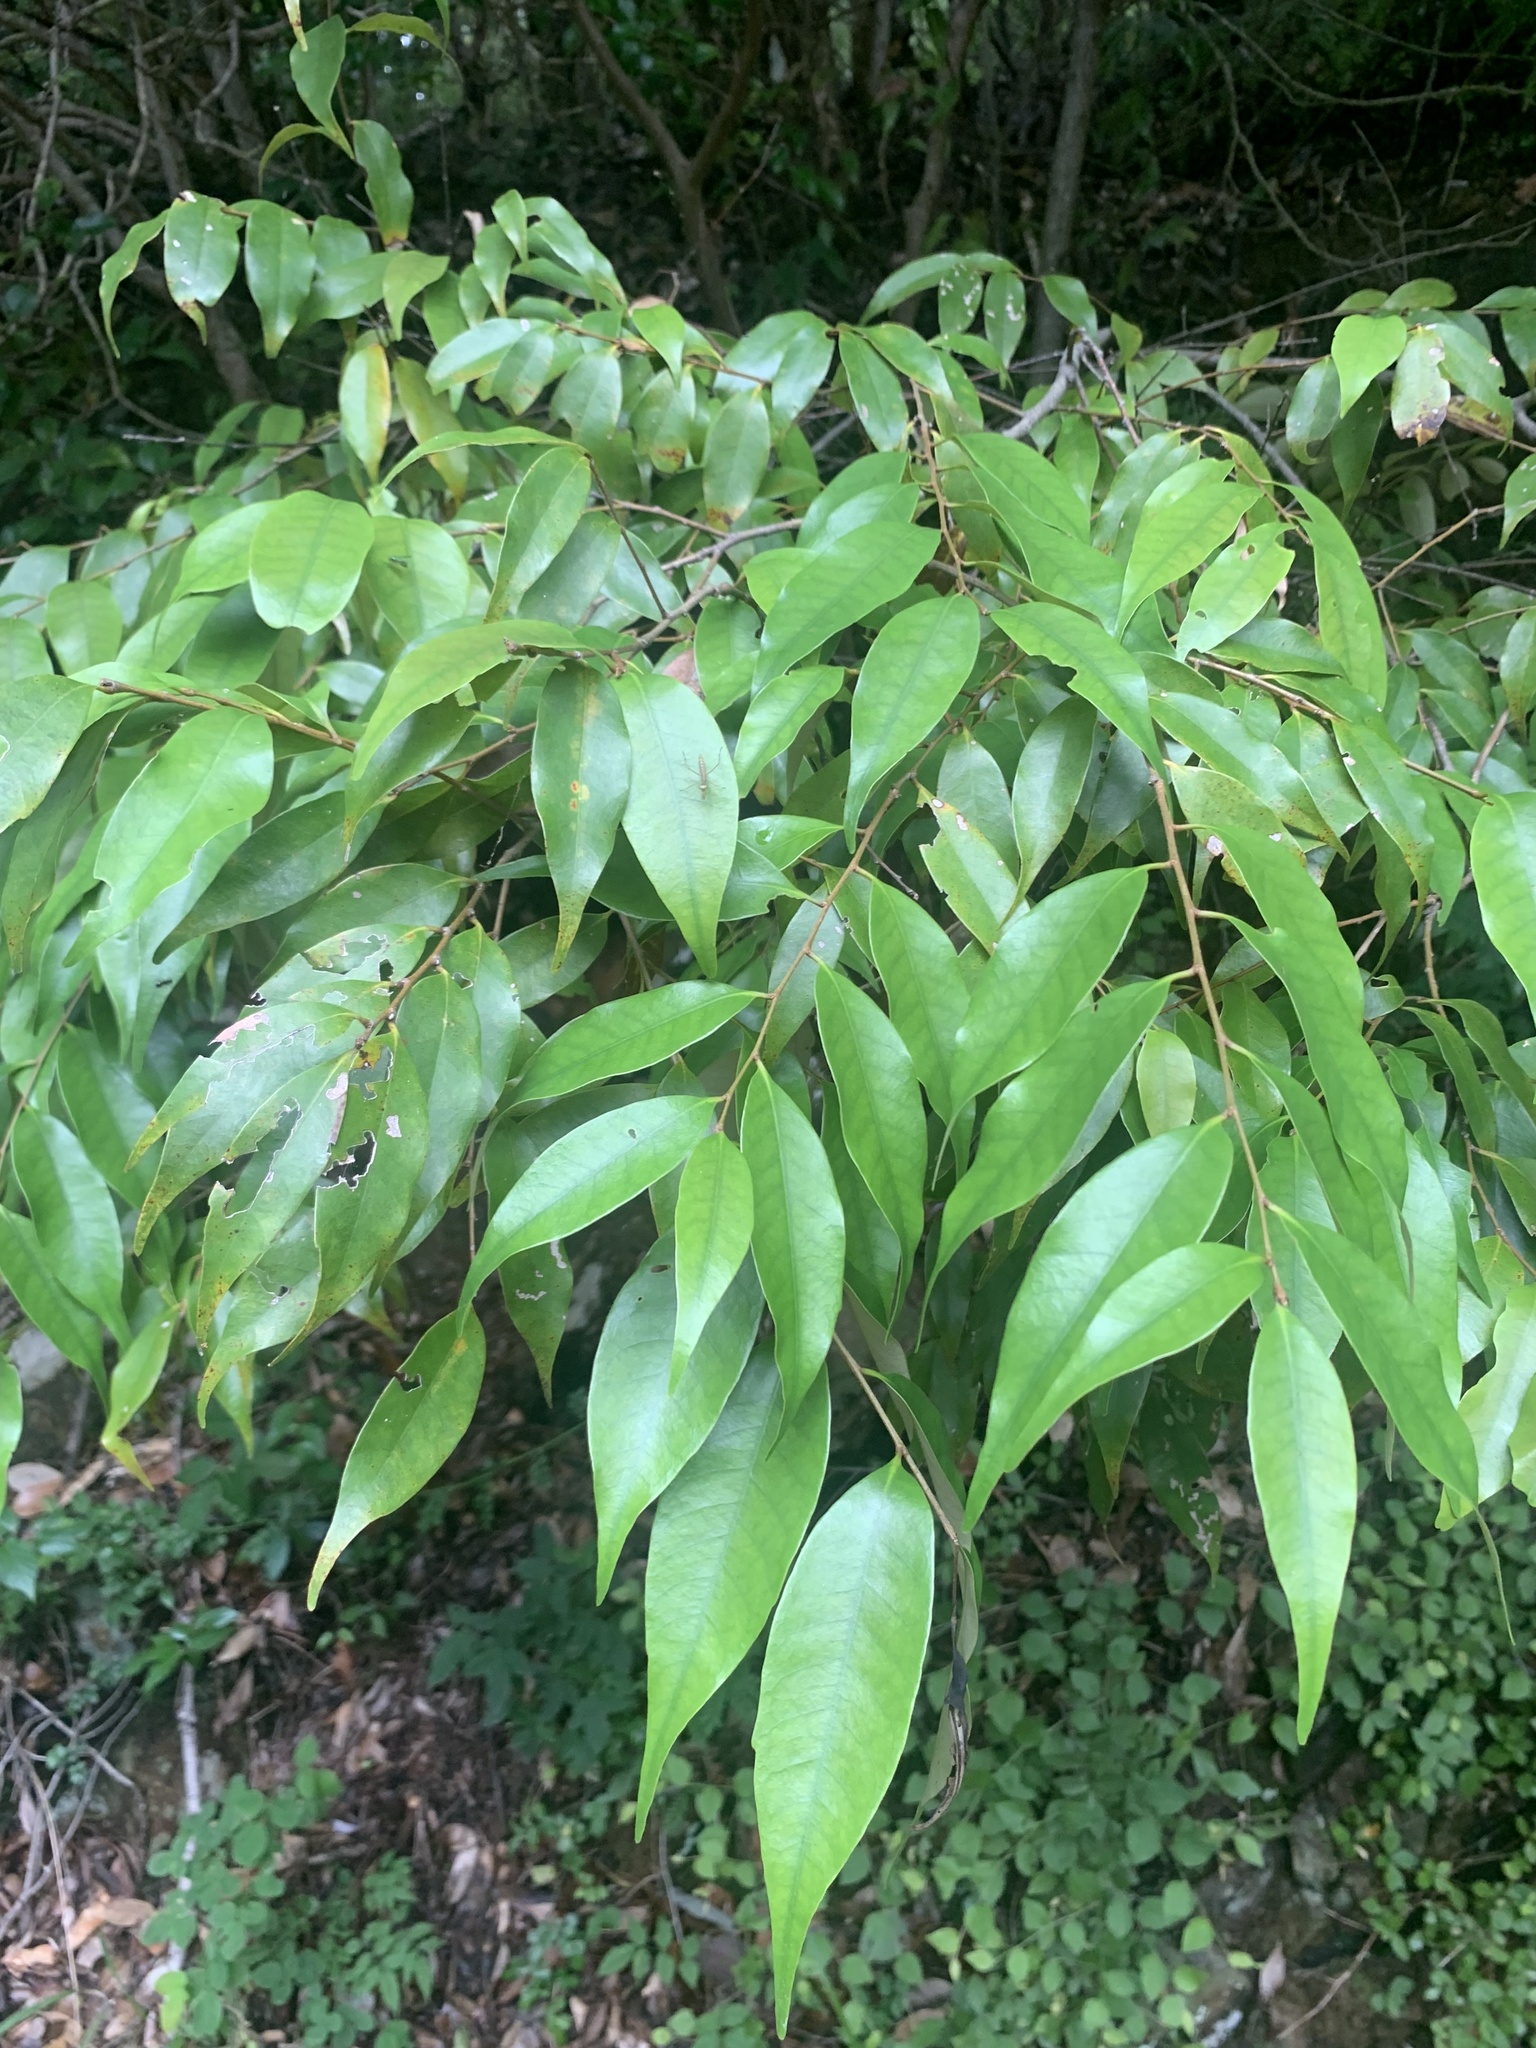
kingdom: Plantae
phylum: Tracheophyta
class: Magnoliopsida
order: Fagales
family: Fagaceae
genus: Castanopsis
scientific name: Castanopsis sieboldii
